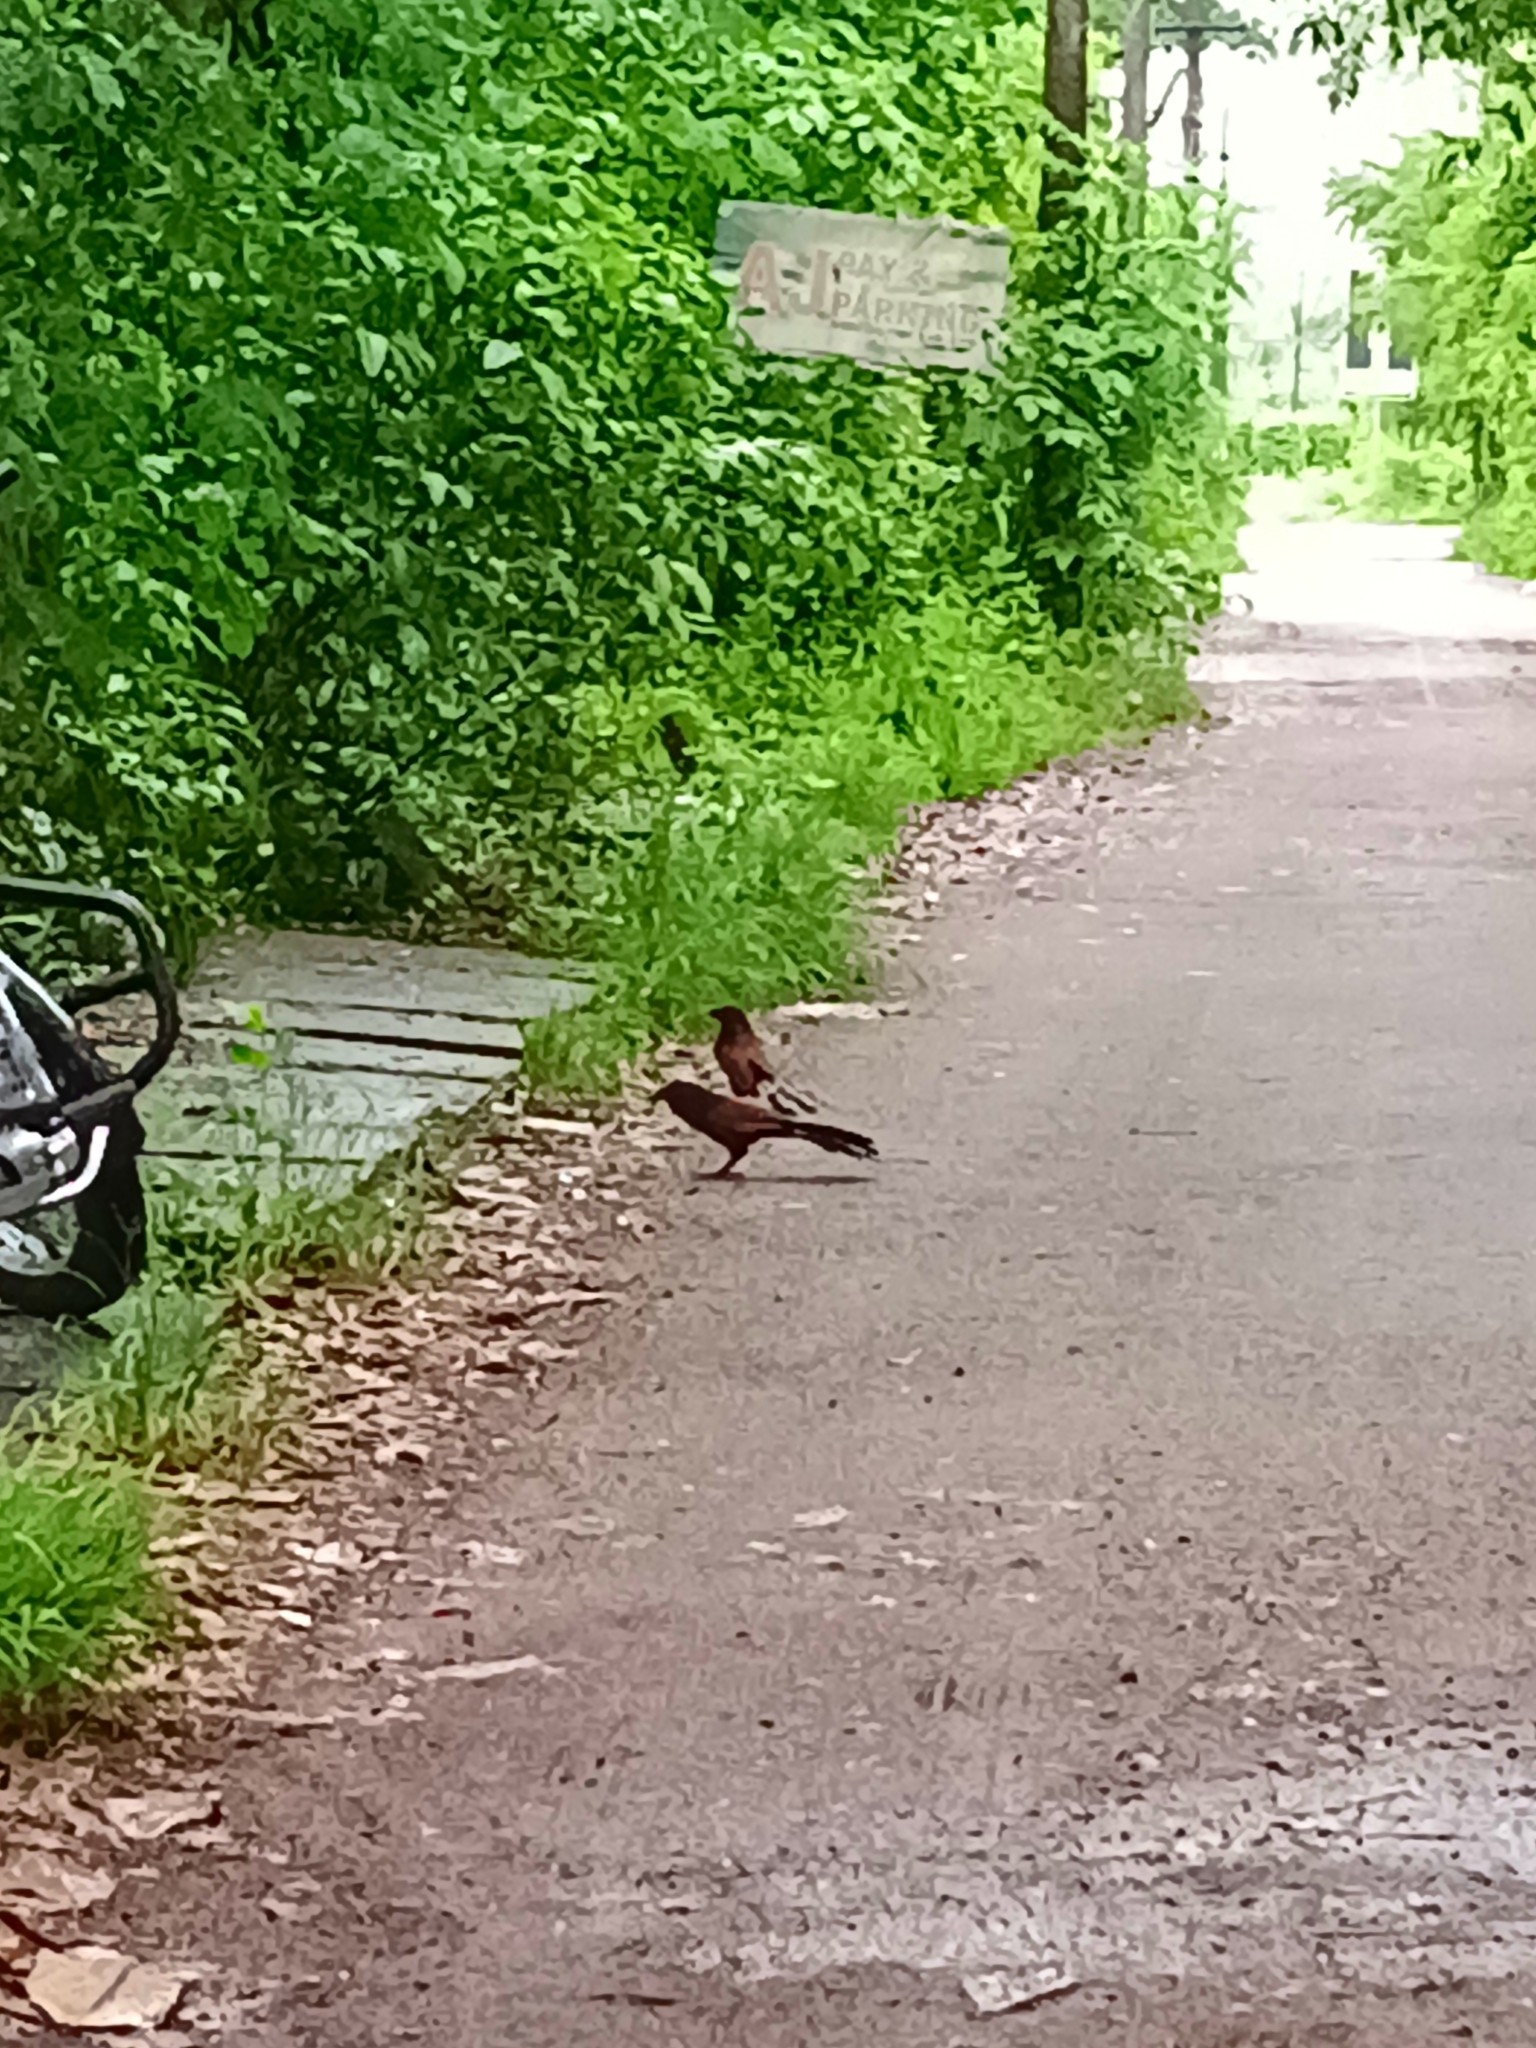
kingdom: Animalia
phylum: Chordata
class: Aves
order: Cuculiformes
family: Cuculidae
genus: Centropus
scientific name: Centropus sinensis
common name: Greater coucal
